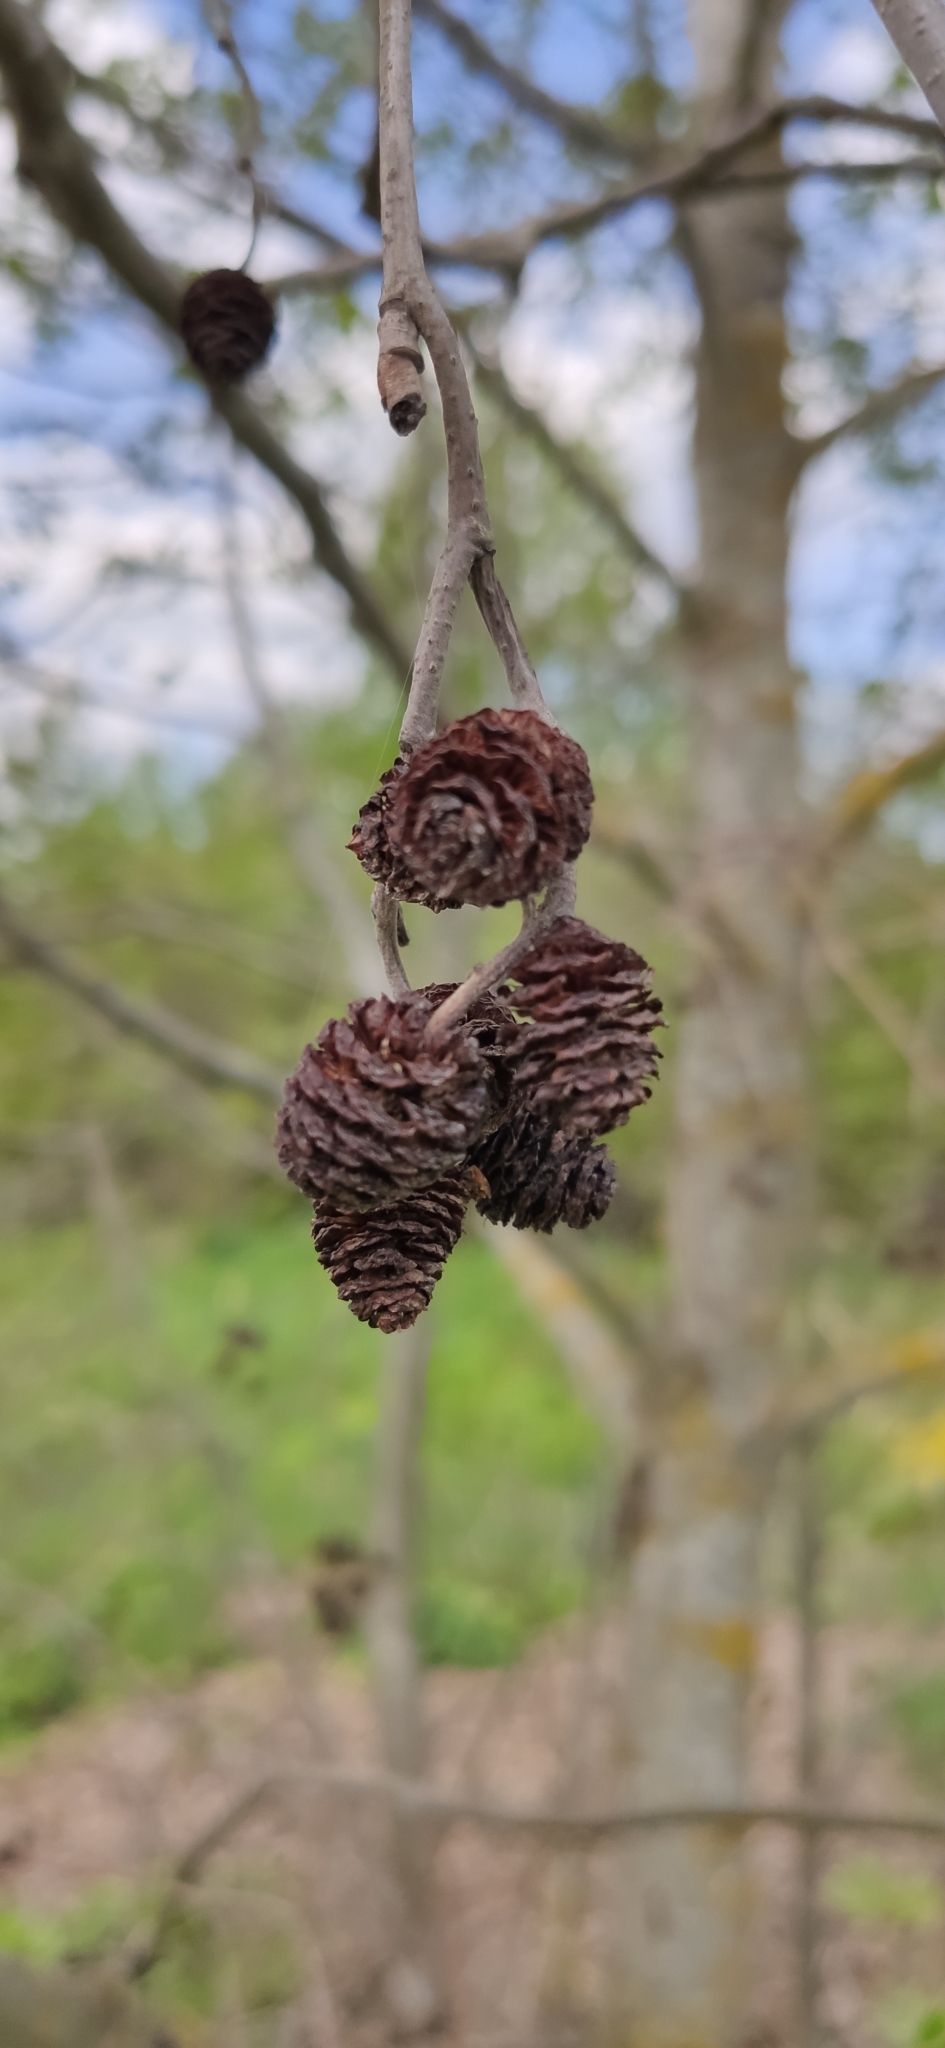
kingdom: Plantae
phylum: Tracheophyta
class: Magnoliopsida
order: Fagales
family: Betulaceae
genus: Alnus
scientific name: Alnus incana
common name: Grey alder
